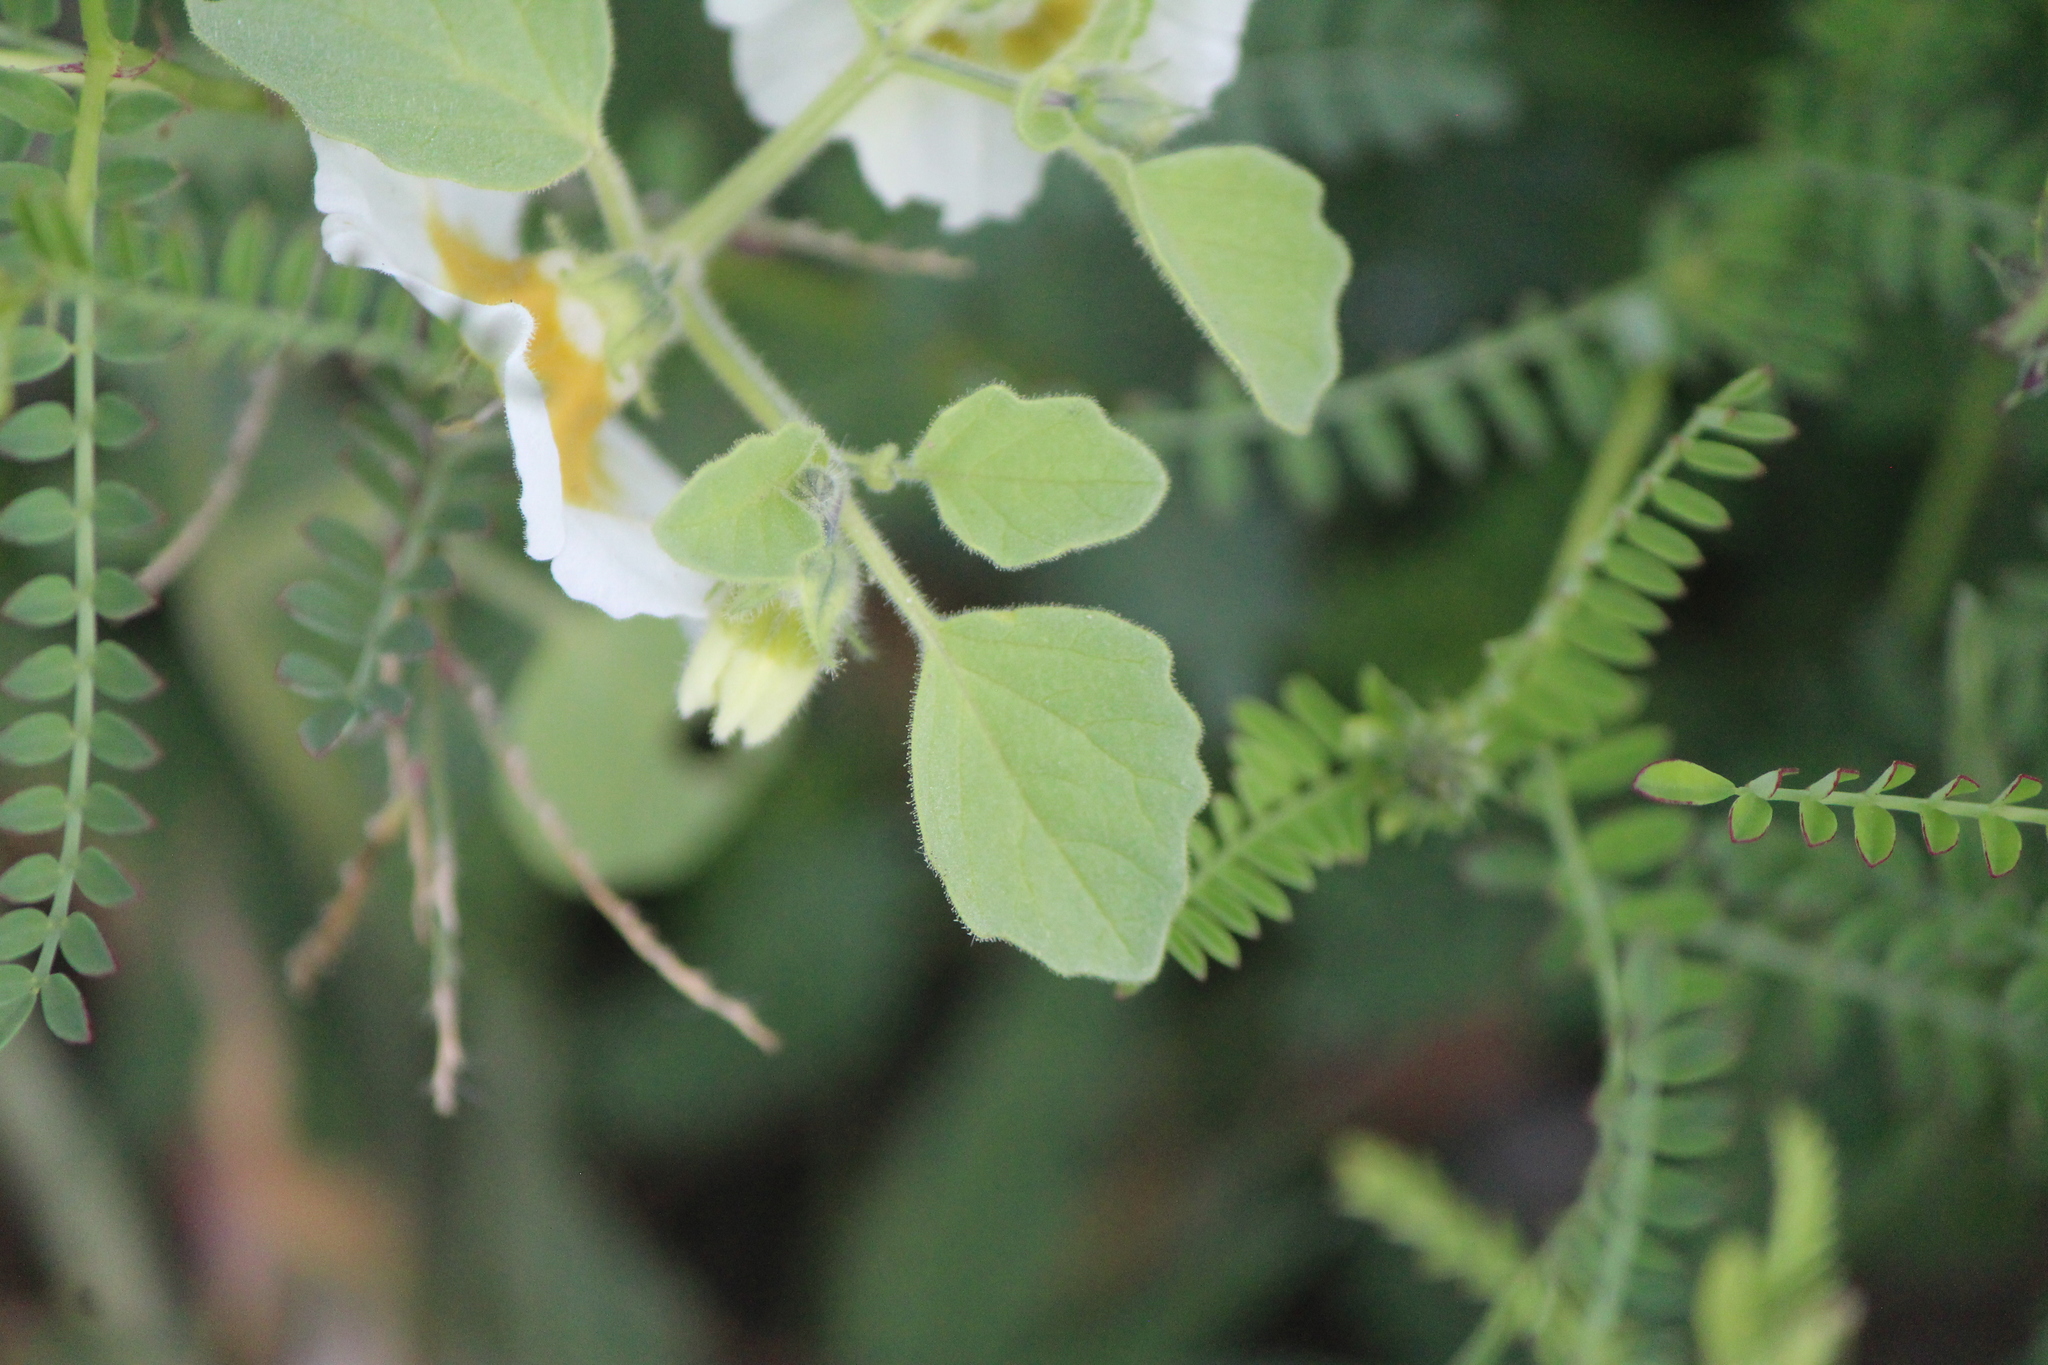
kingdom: Plantae
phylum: Tracheophyta
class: Magnoliopsida
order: Solanales
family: Solanaceae
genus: Physalis
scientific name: Physalis acutifolia
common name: Wright's ground-cherry
